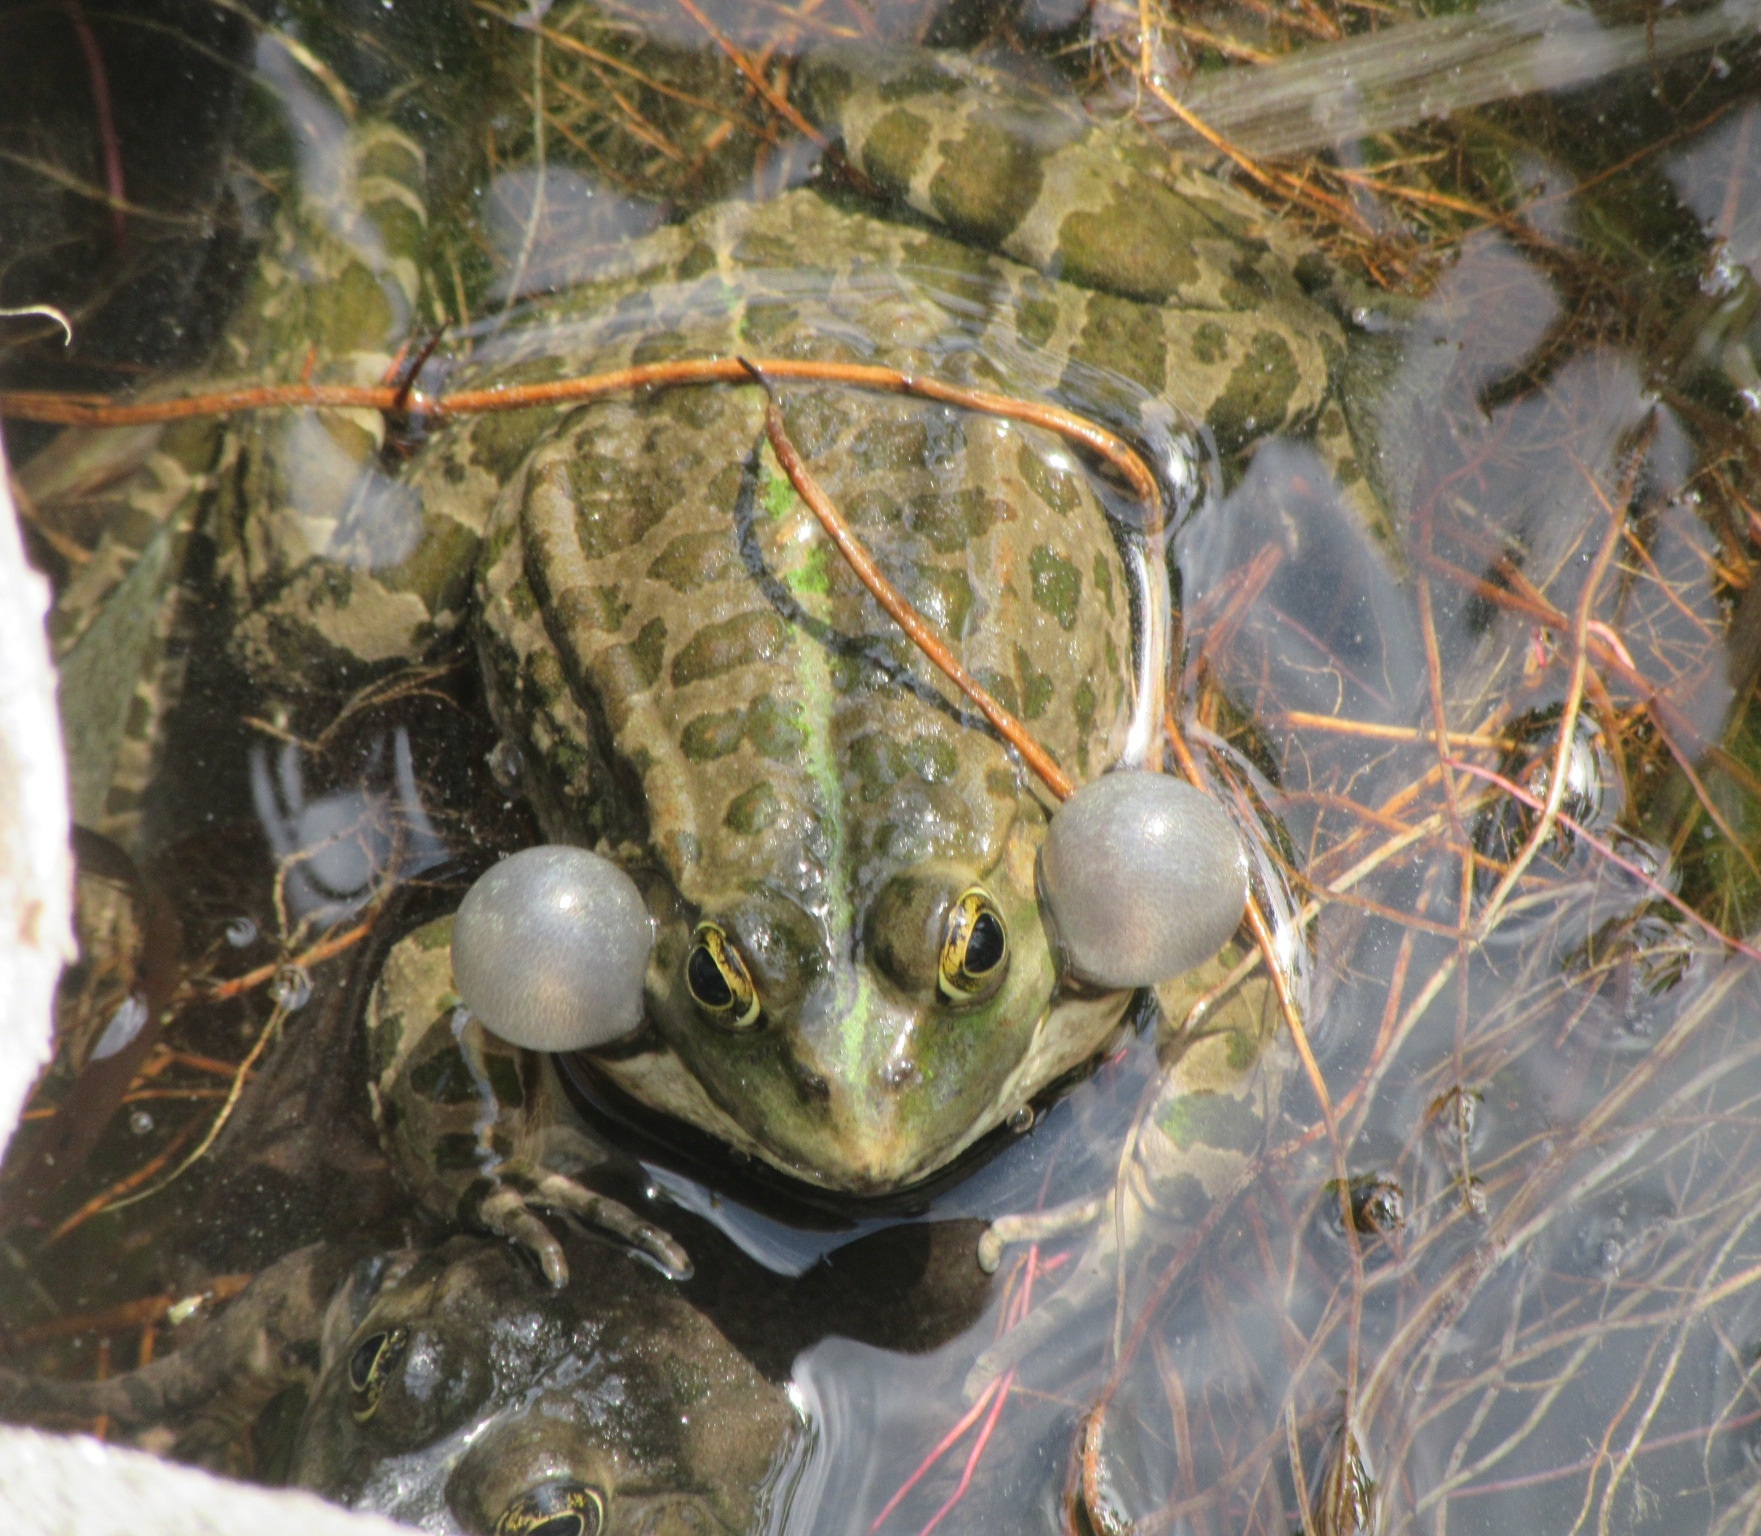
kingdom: Animalia
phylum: Chordata
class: Amphibia
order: Anura
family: Ranidae
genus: Pelophylax
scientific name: Pelophylax
